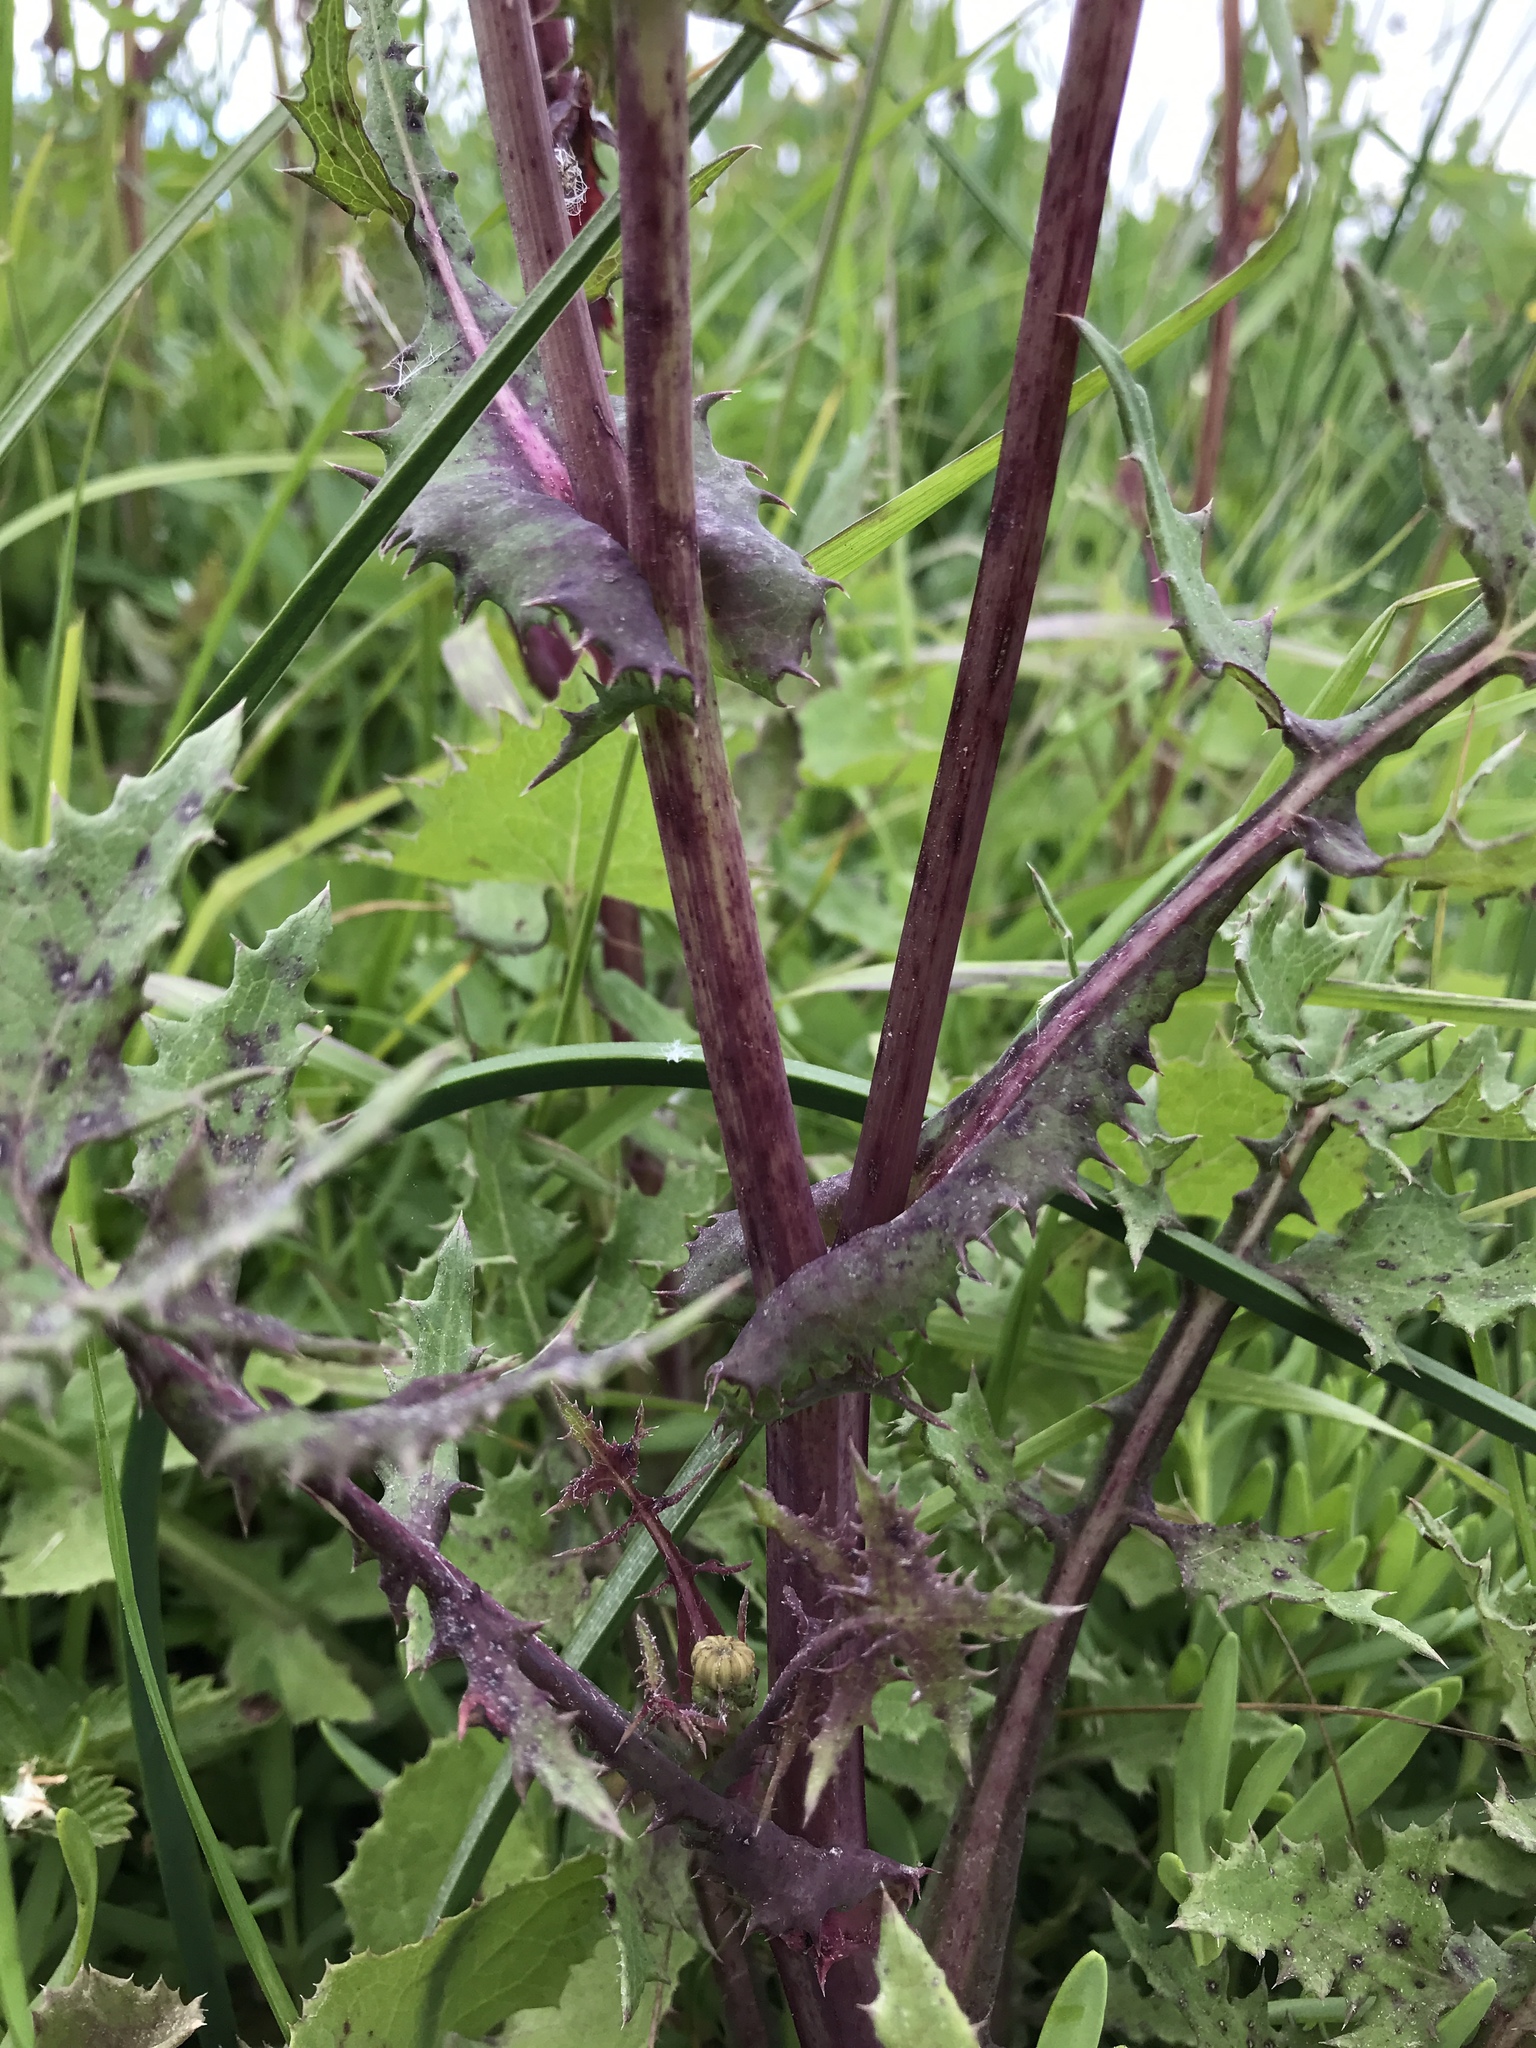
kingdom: Plantae
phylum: Tracheophyta
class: Magnoliopsida
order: Asterales
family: Asteraceae
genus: Sonchus
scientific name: Sonchus asper
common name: Prickly sow-thistle
